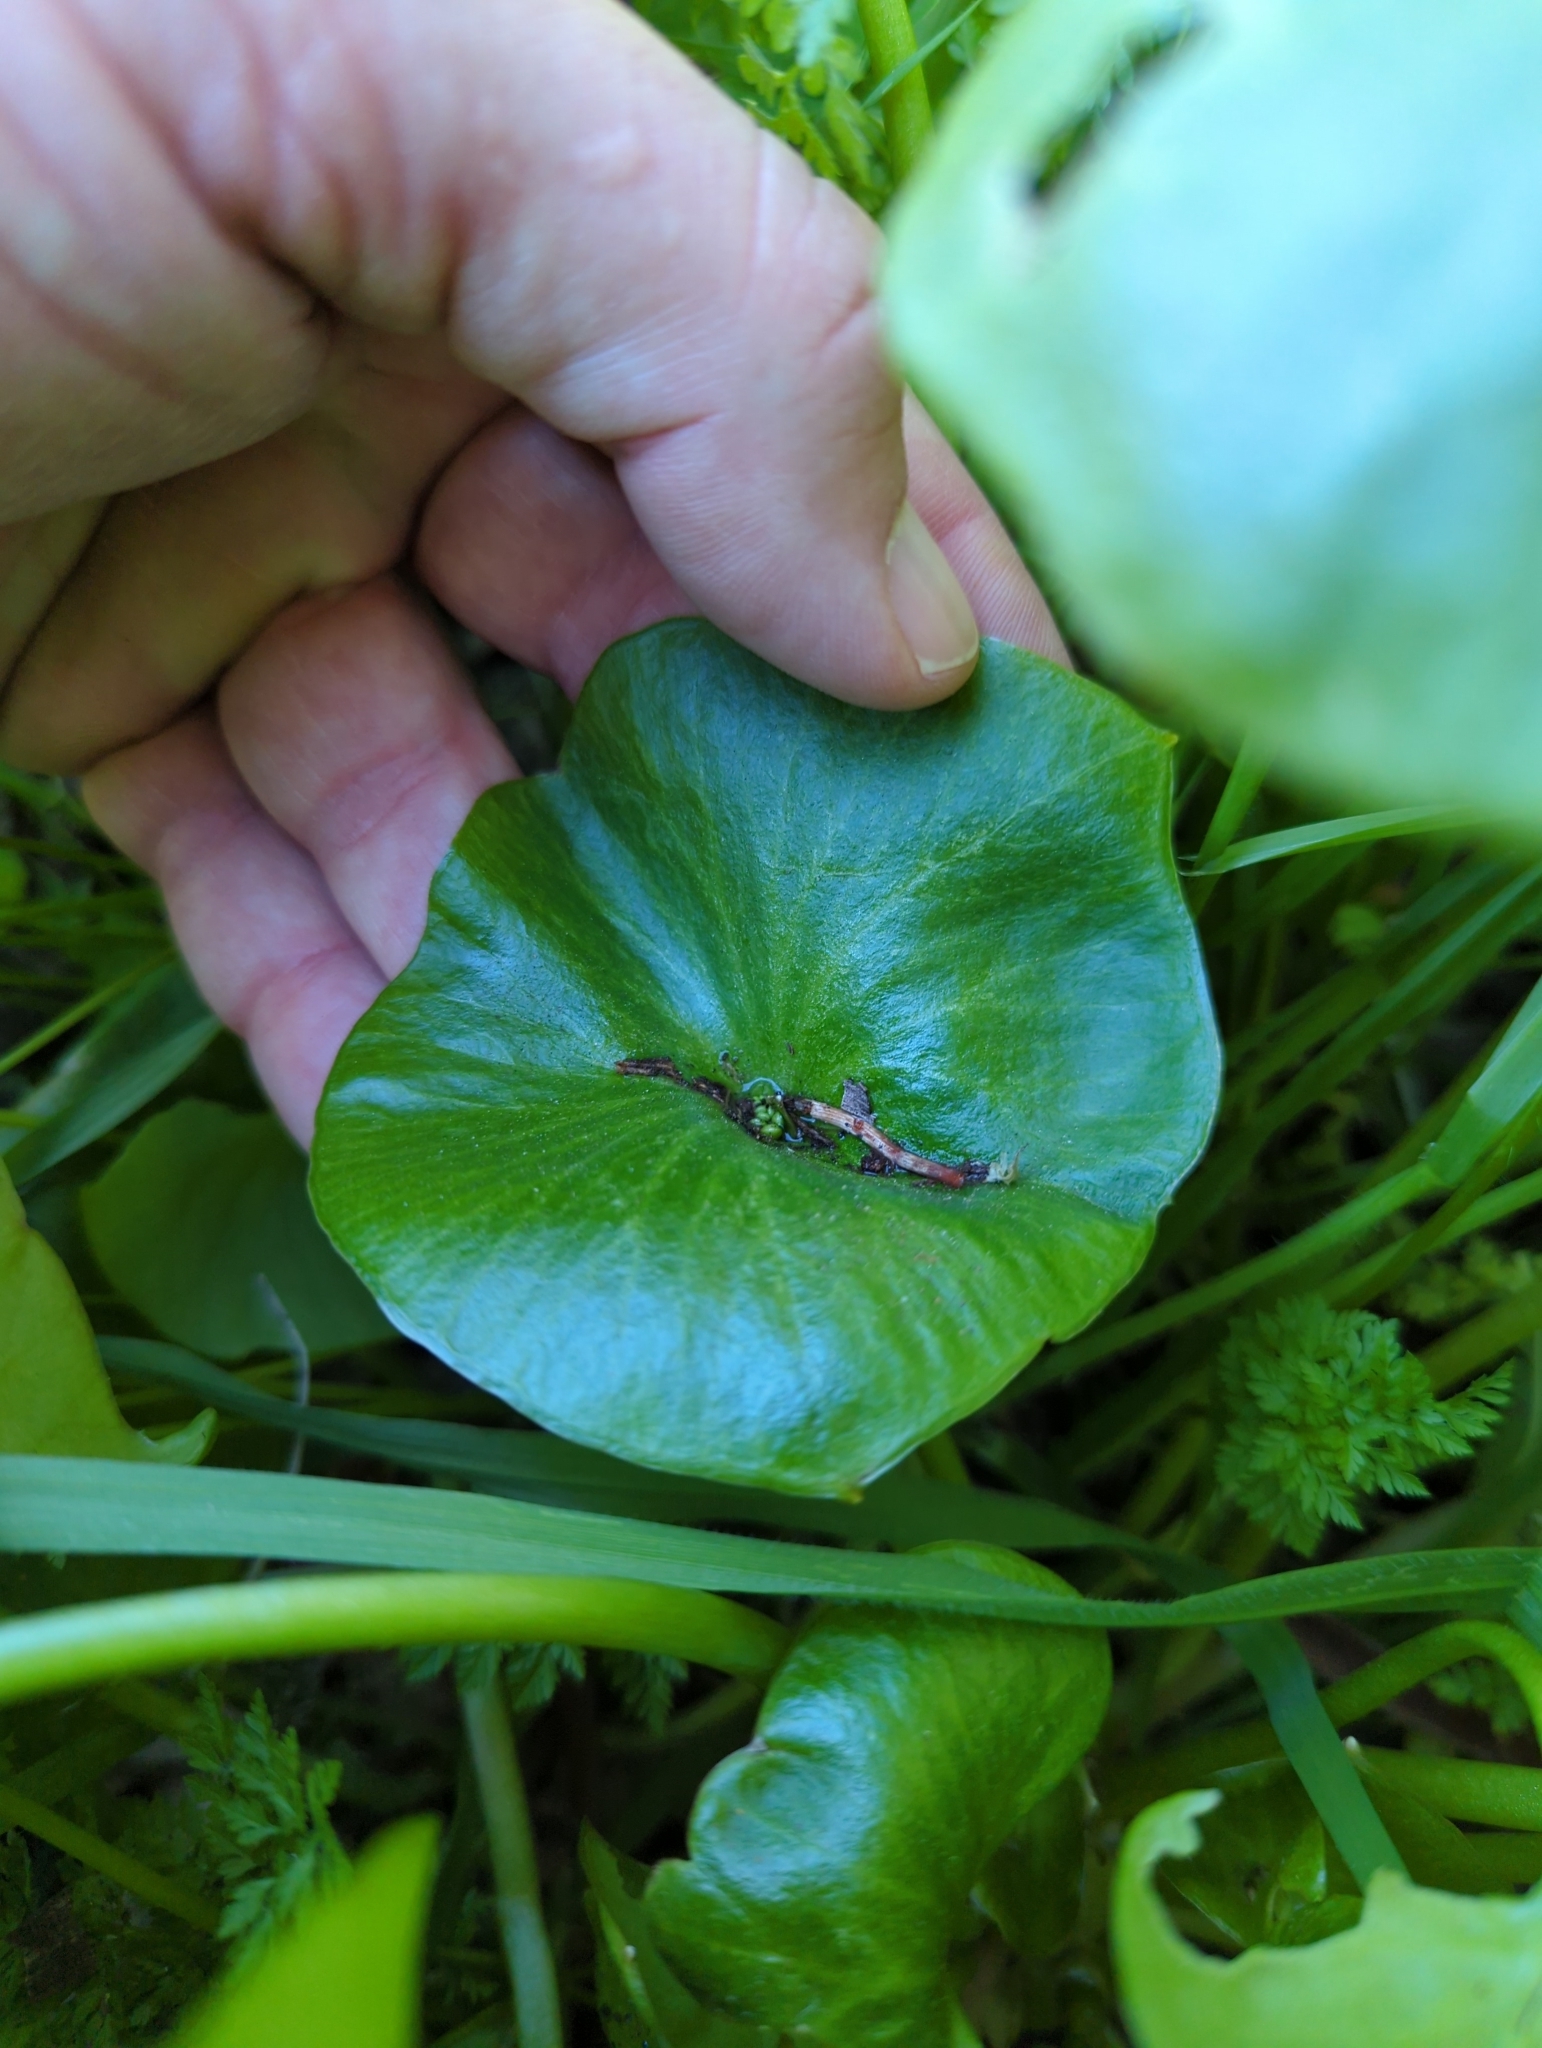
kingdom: Plantae
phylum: Tracheophyta
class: Magnoliopsida
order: Caryophyllales
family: Montiaceae
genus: Claytonia
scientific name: Claytonia perfoliata
